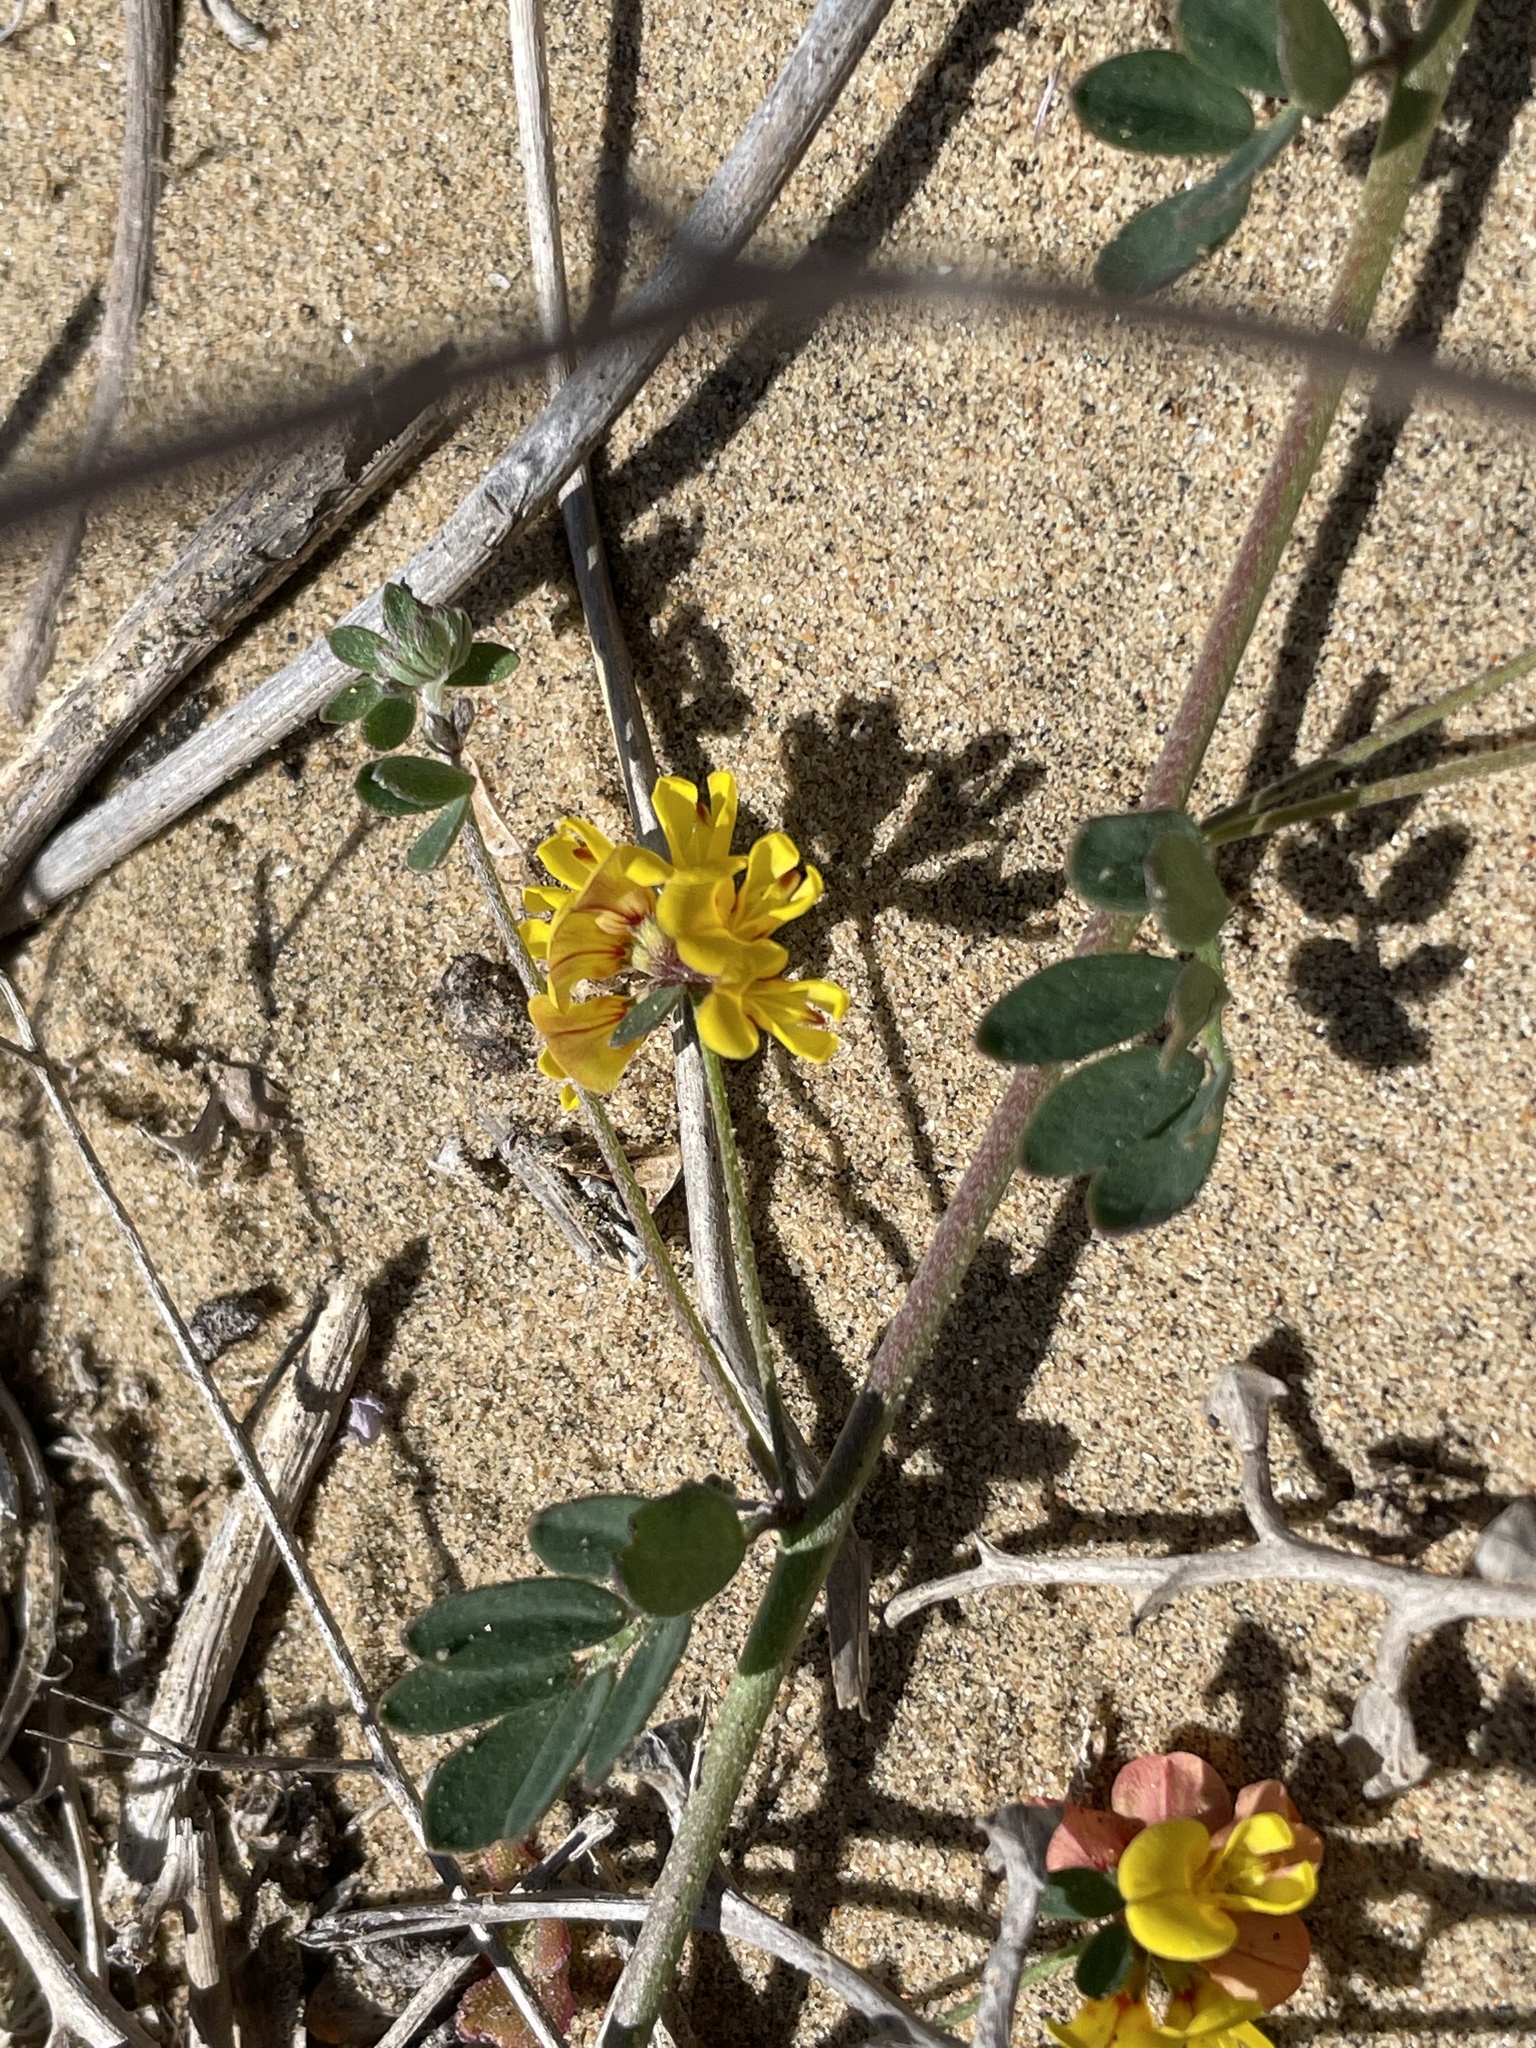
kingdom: Plantae
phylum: Tracheophyta
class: Magnoliopsida
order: Fabales
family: Fabaceae
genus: Acmispon
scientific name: Acmispon prostratus
